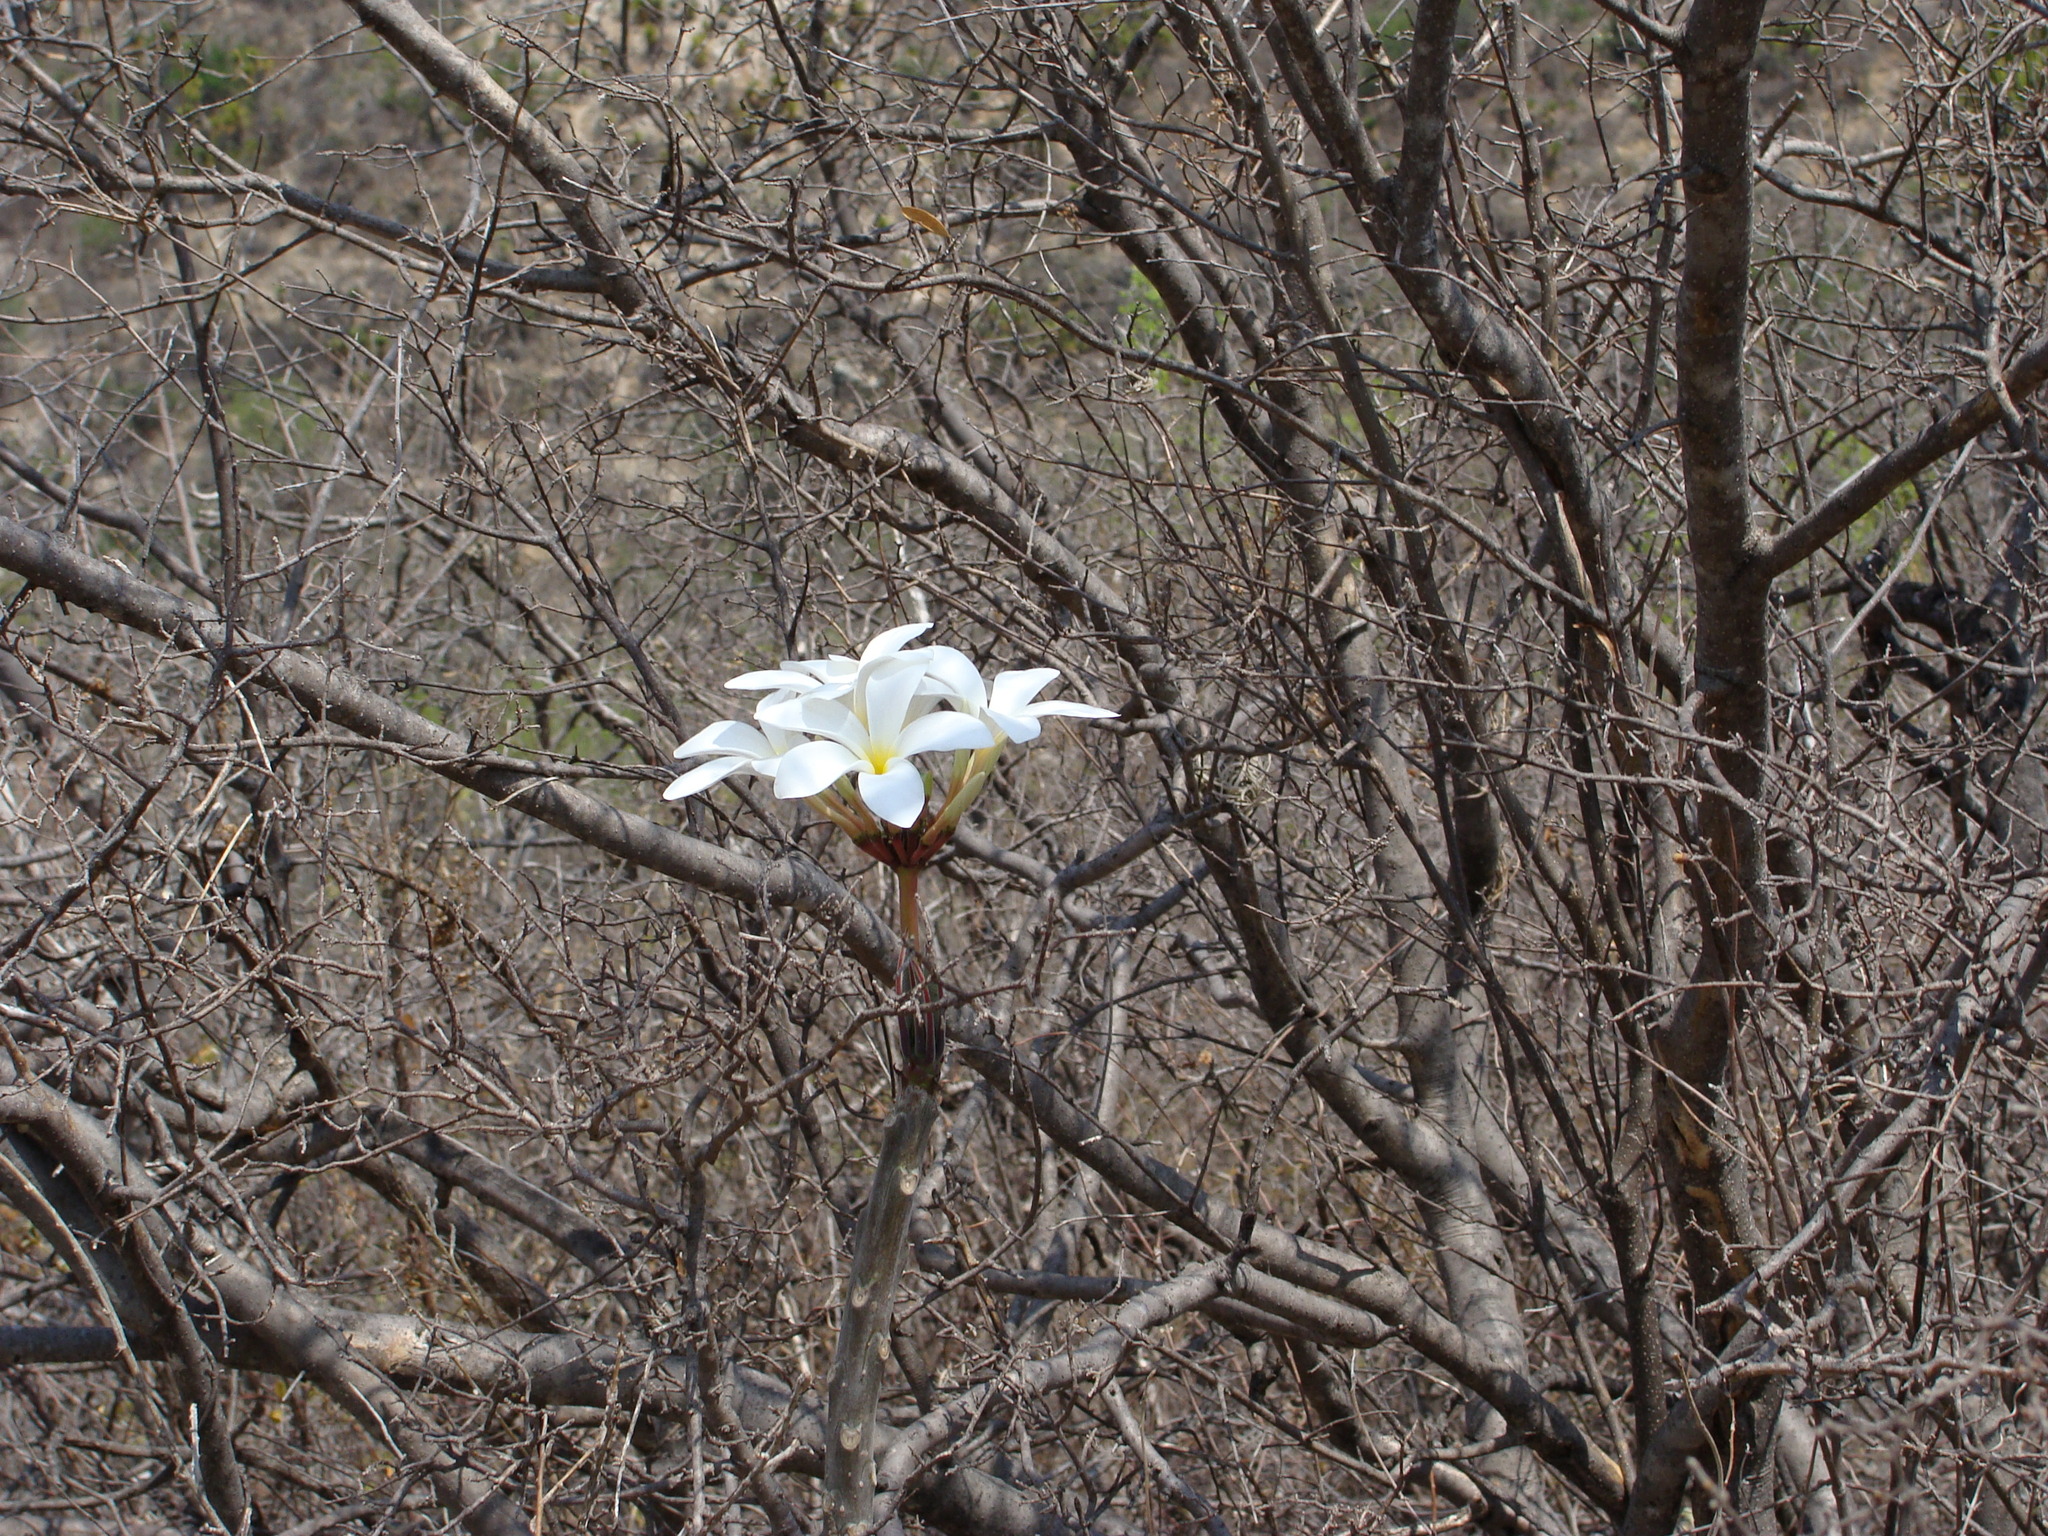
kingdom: Plantae
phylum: Tracheophyta
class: Magnoliopsida
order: Gentianales
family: Apocynaceae
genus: Plumeria
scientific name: Plumeria rubra
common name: Pagoda-tree
